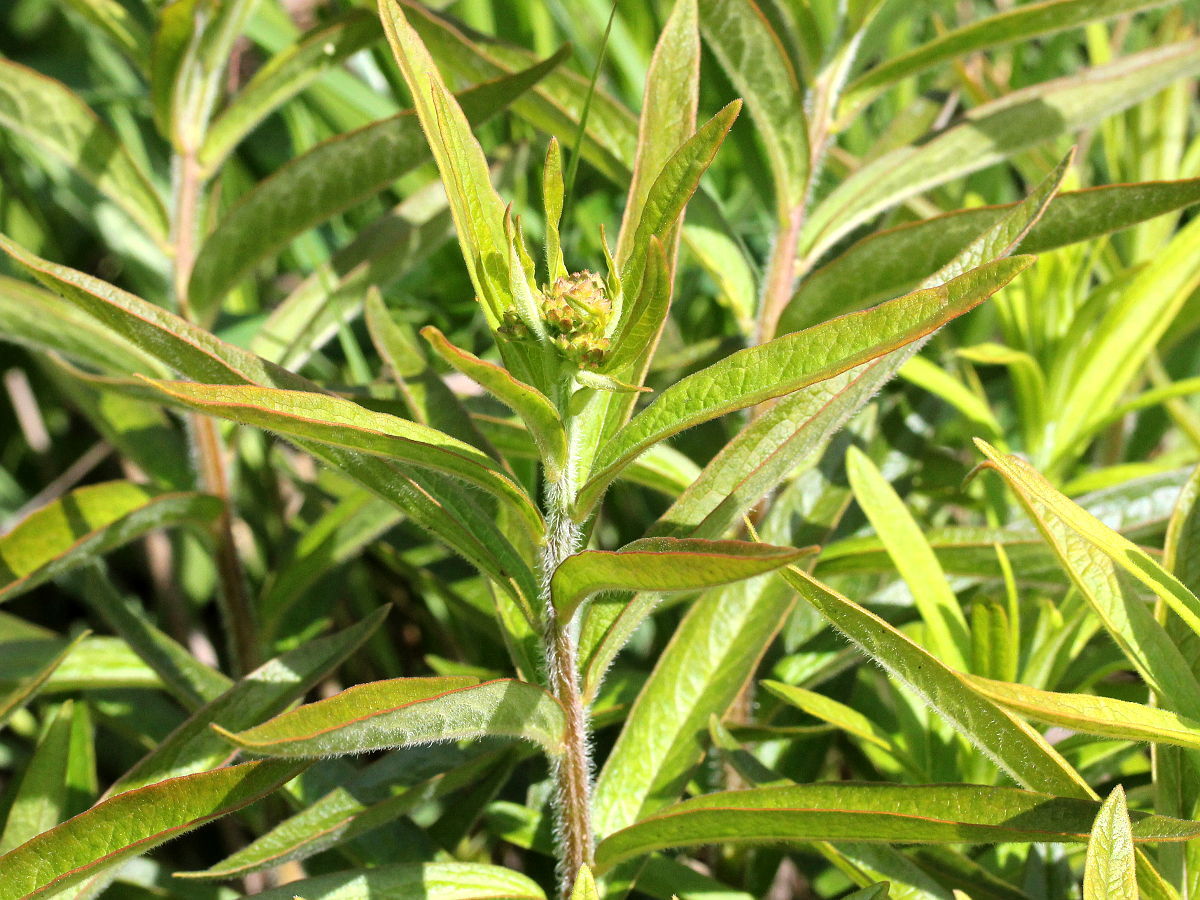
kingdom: Plantae
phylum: Tracheophyta
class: Magnoliopsida
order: Gentianales
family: Apocynaceae
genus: Asclepias
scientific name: Asclepias tuberosa
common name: Butterfly milkweed
